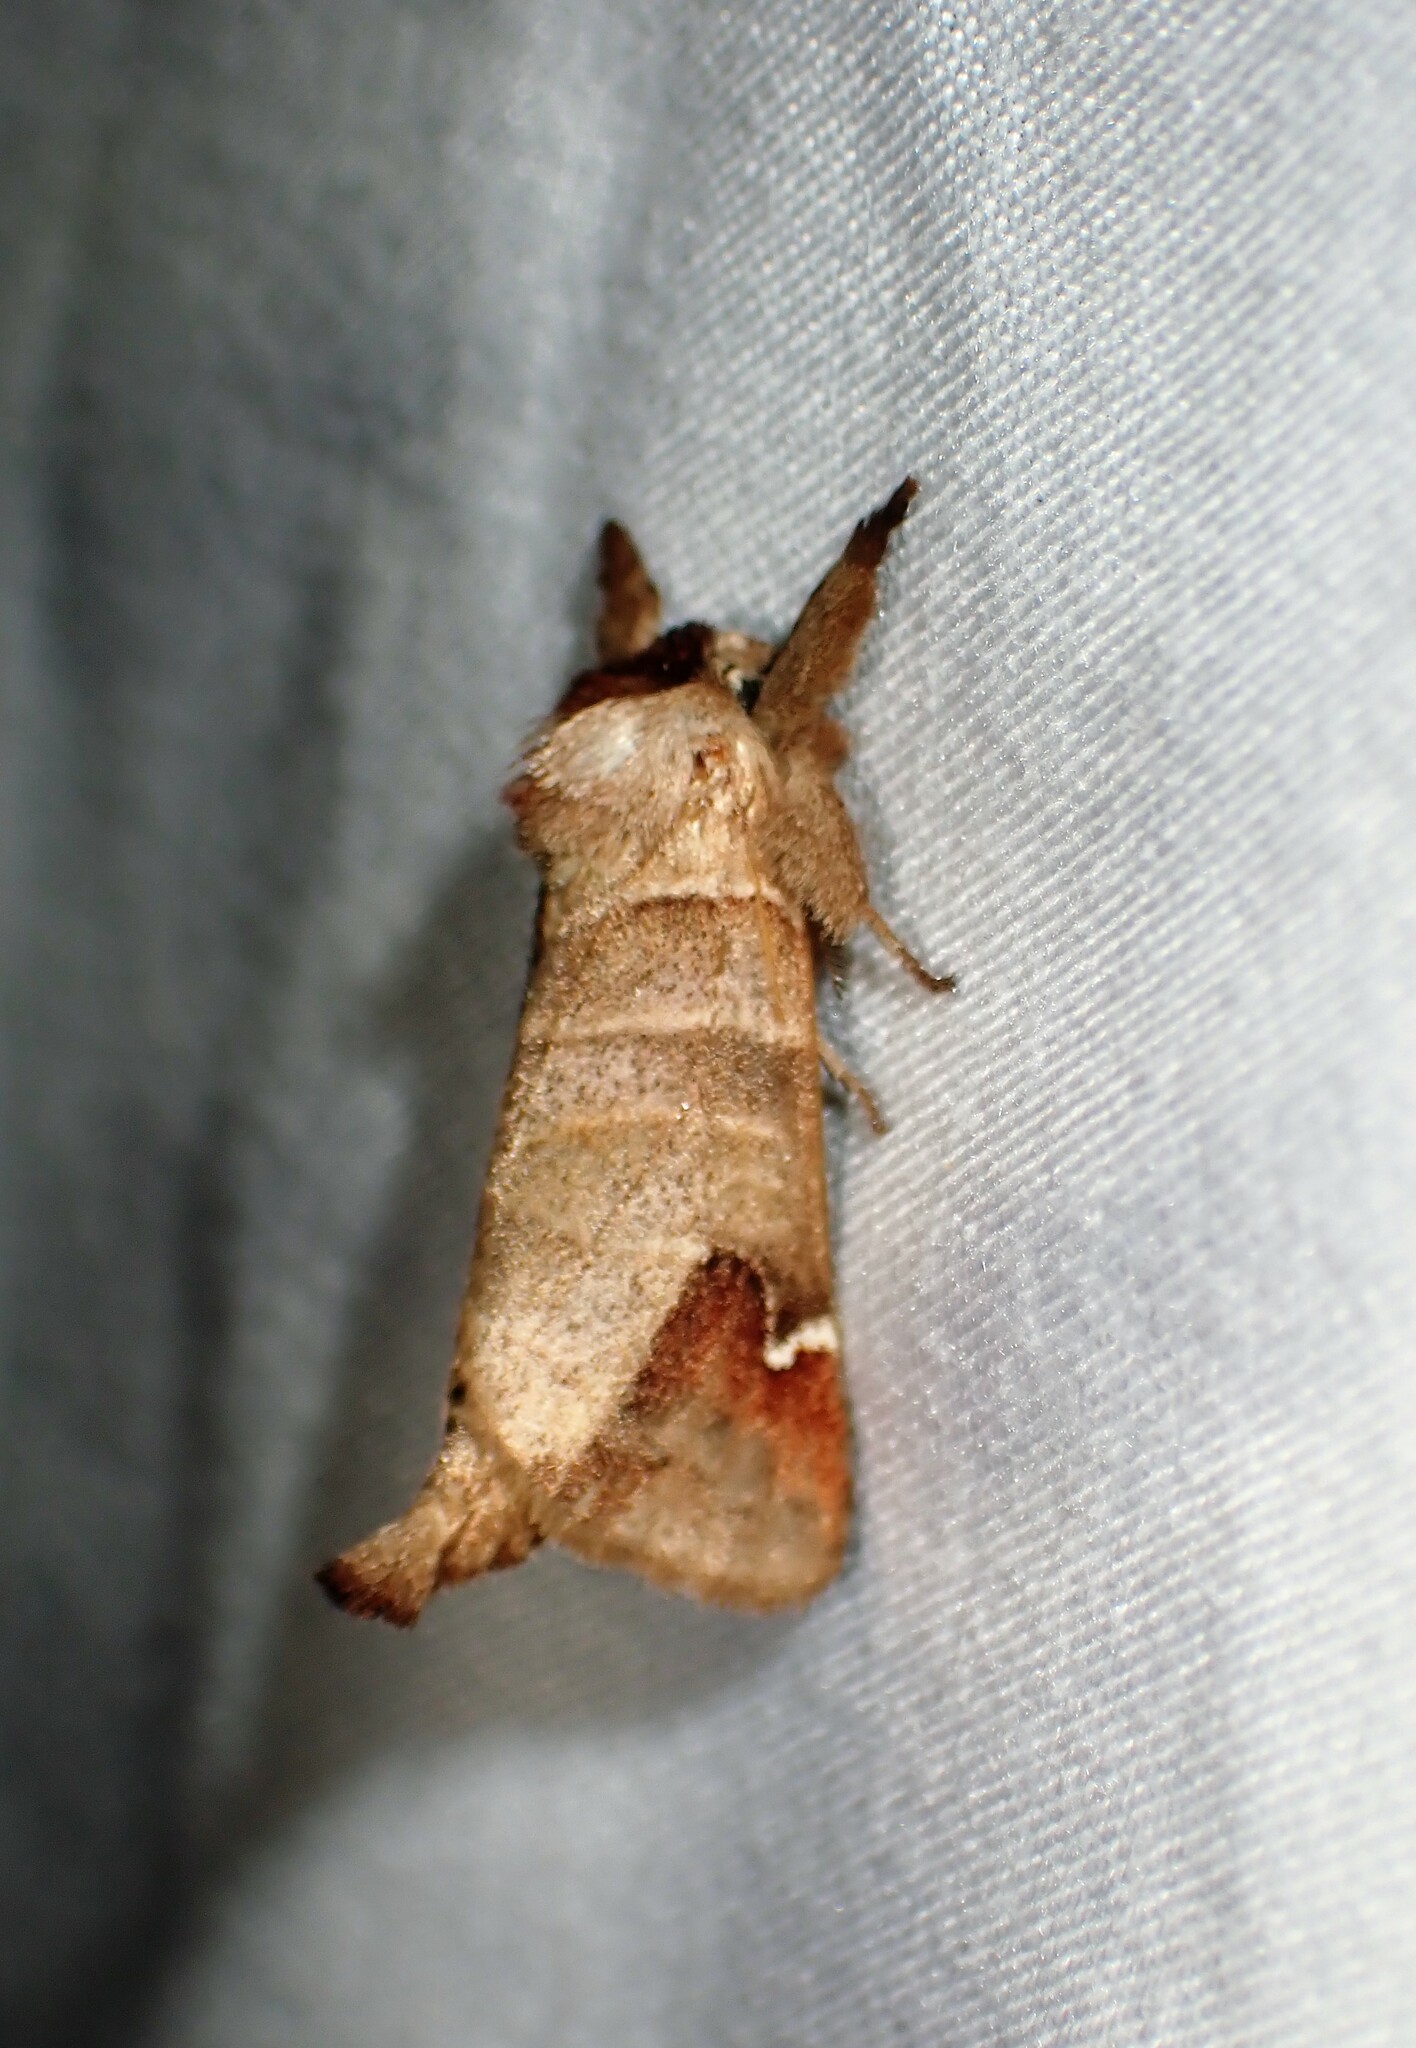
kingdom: Animalia
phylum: Arthropoda
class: Insecta
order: Lepidoptera
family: Notodontidae
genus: Clostera
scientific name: Clostera albosigma
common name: Sigmoid prominent
